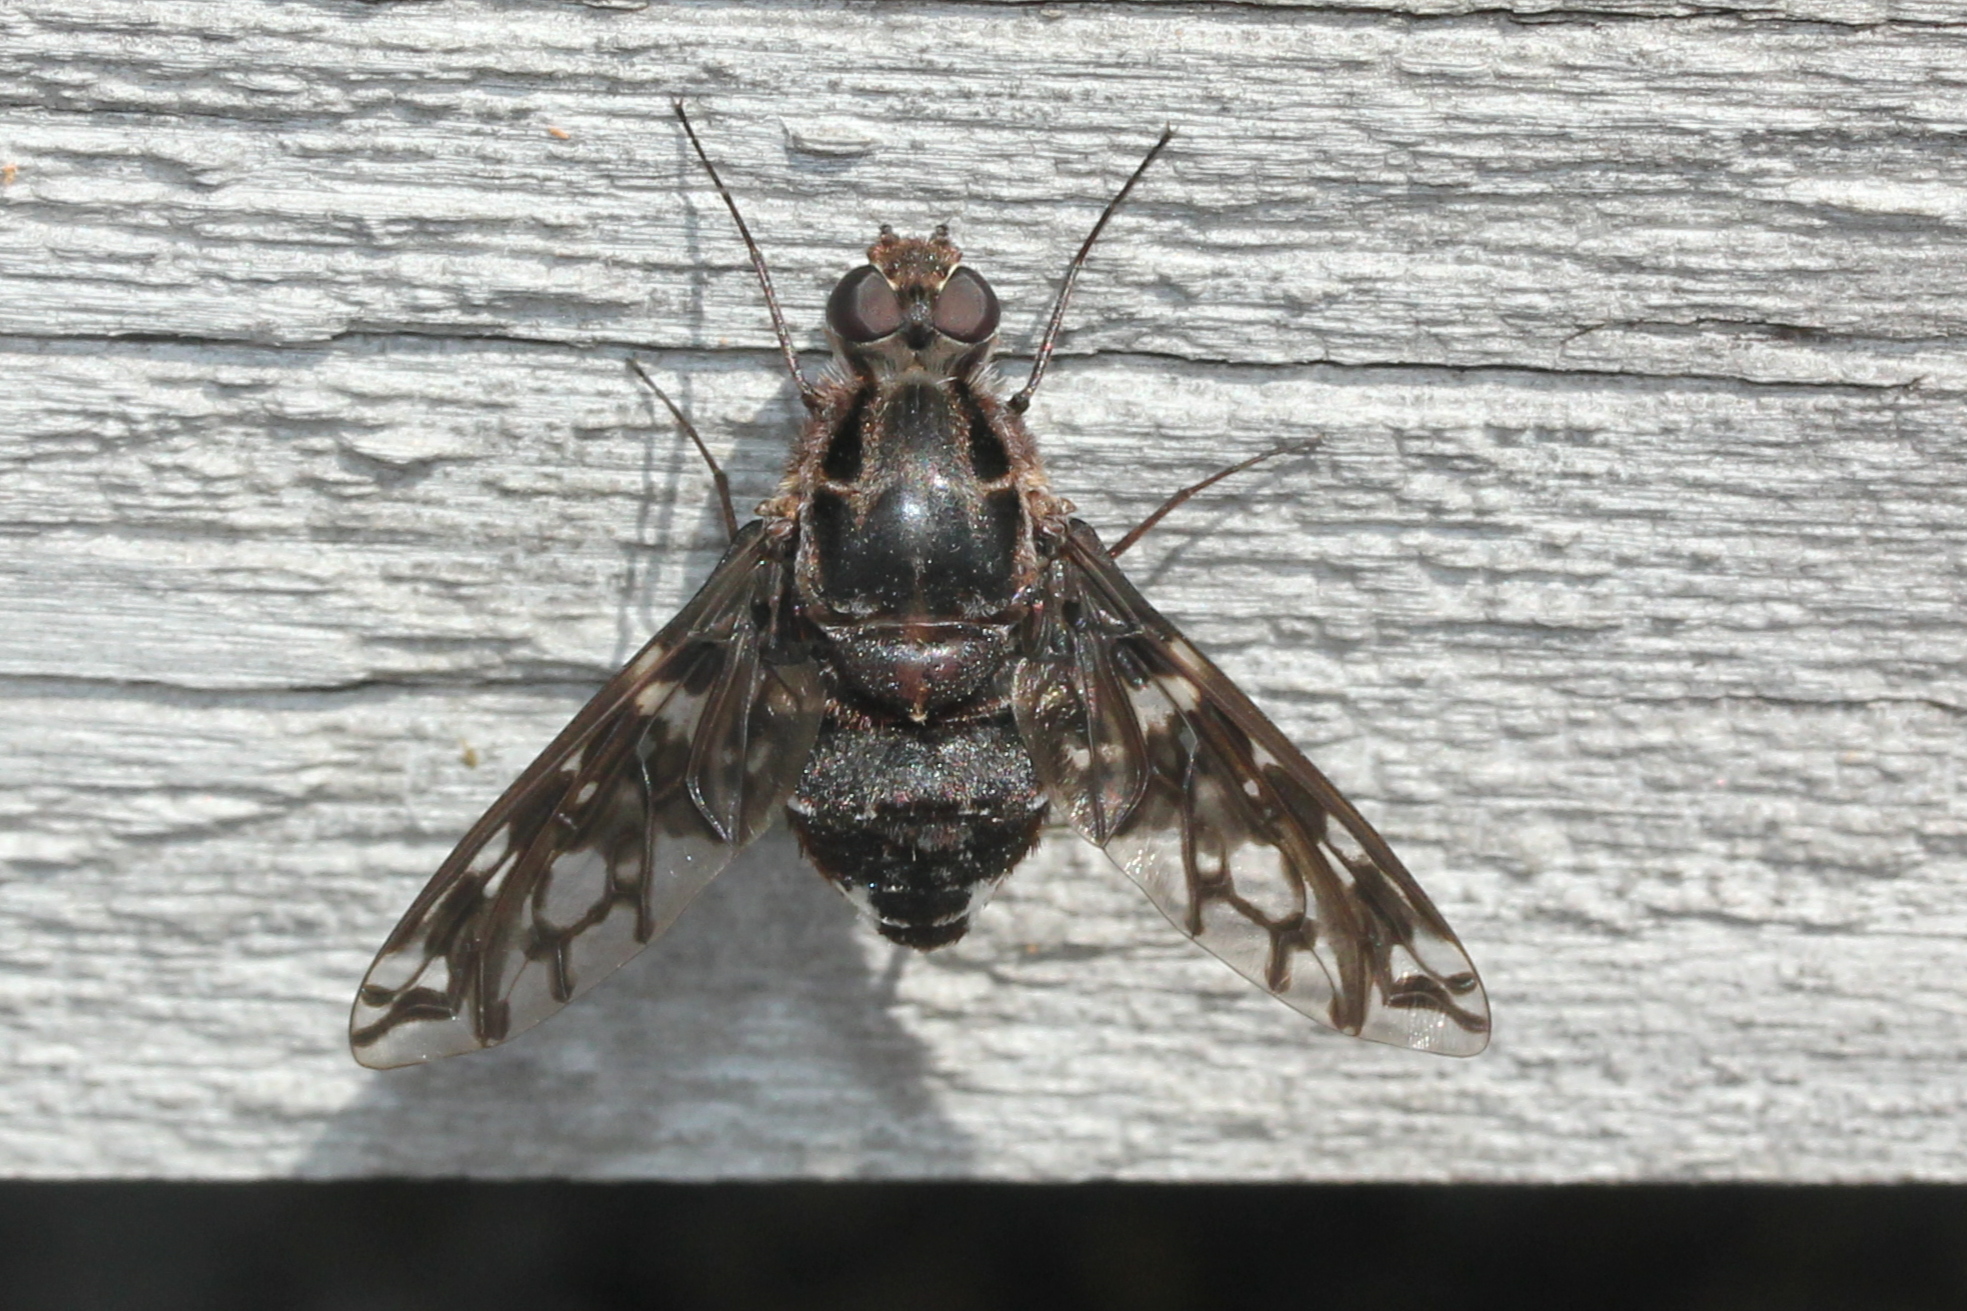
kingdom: Animalia
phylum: Arthropoda
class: Insecta
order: Diptera
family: Bombyliidae
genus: Xenox
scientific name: Xenox tigrinus
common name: Tiger bee fly
